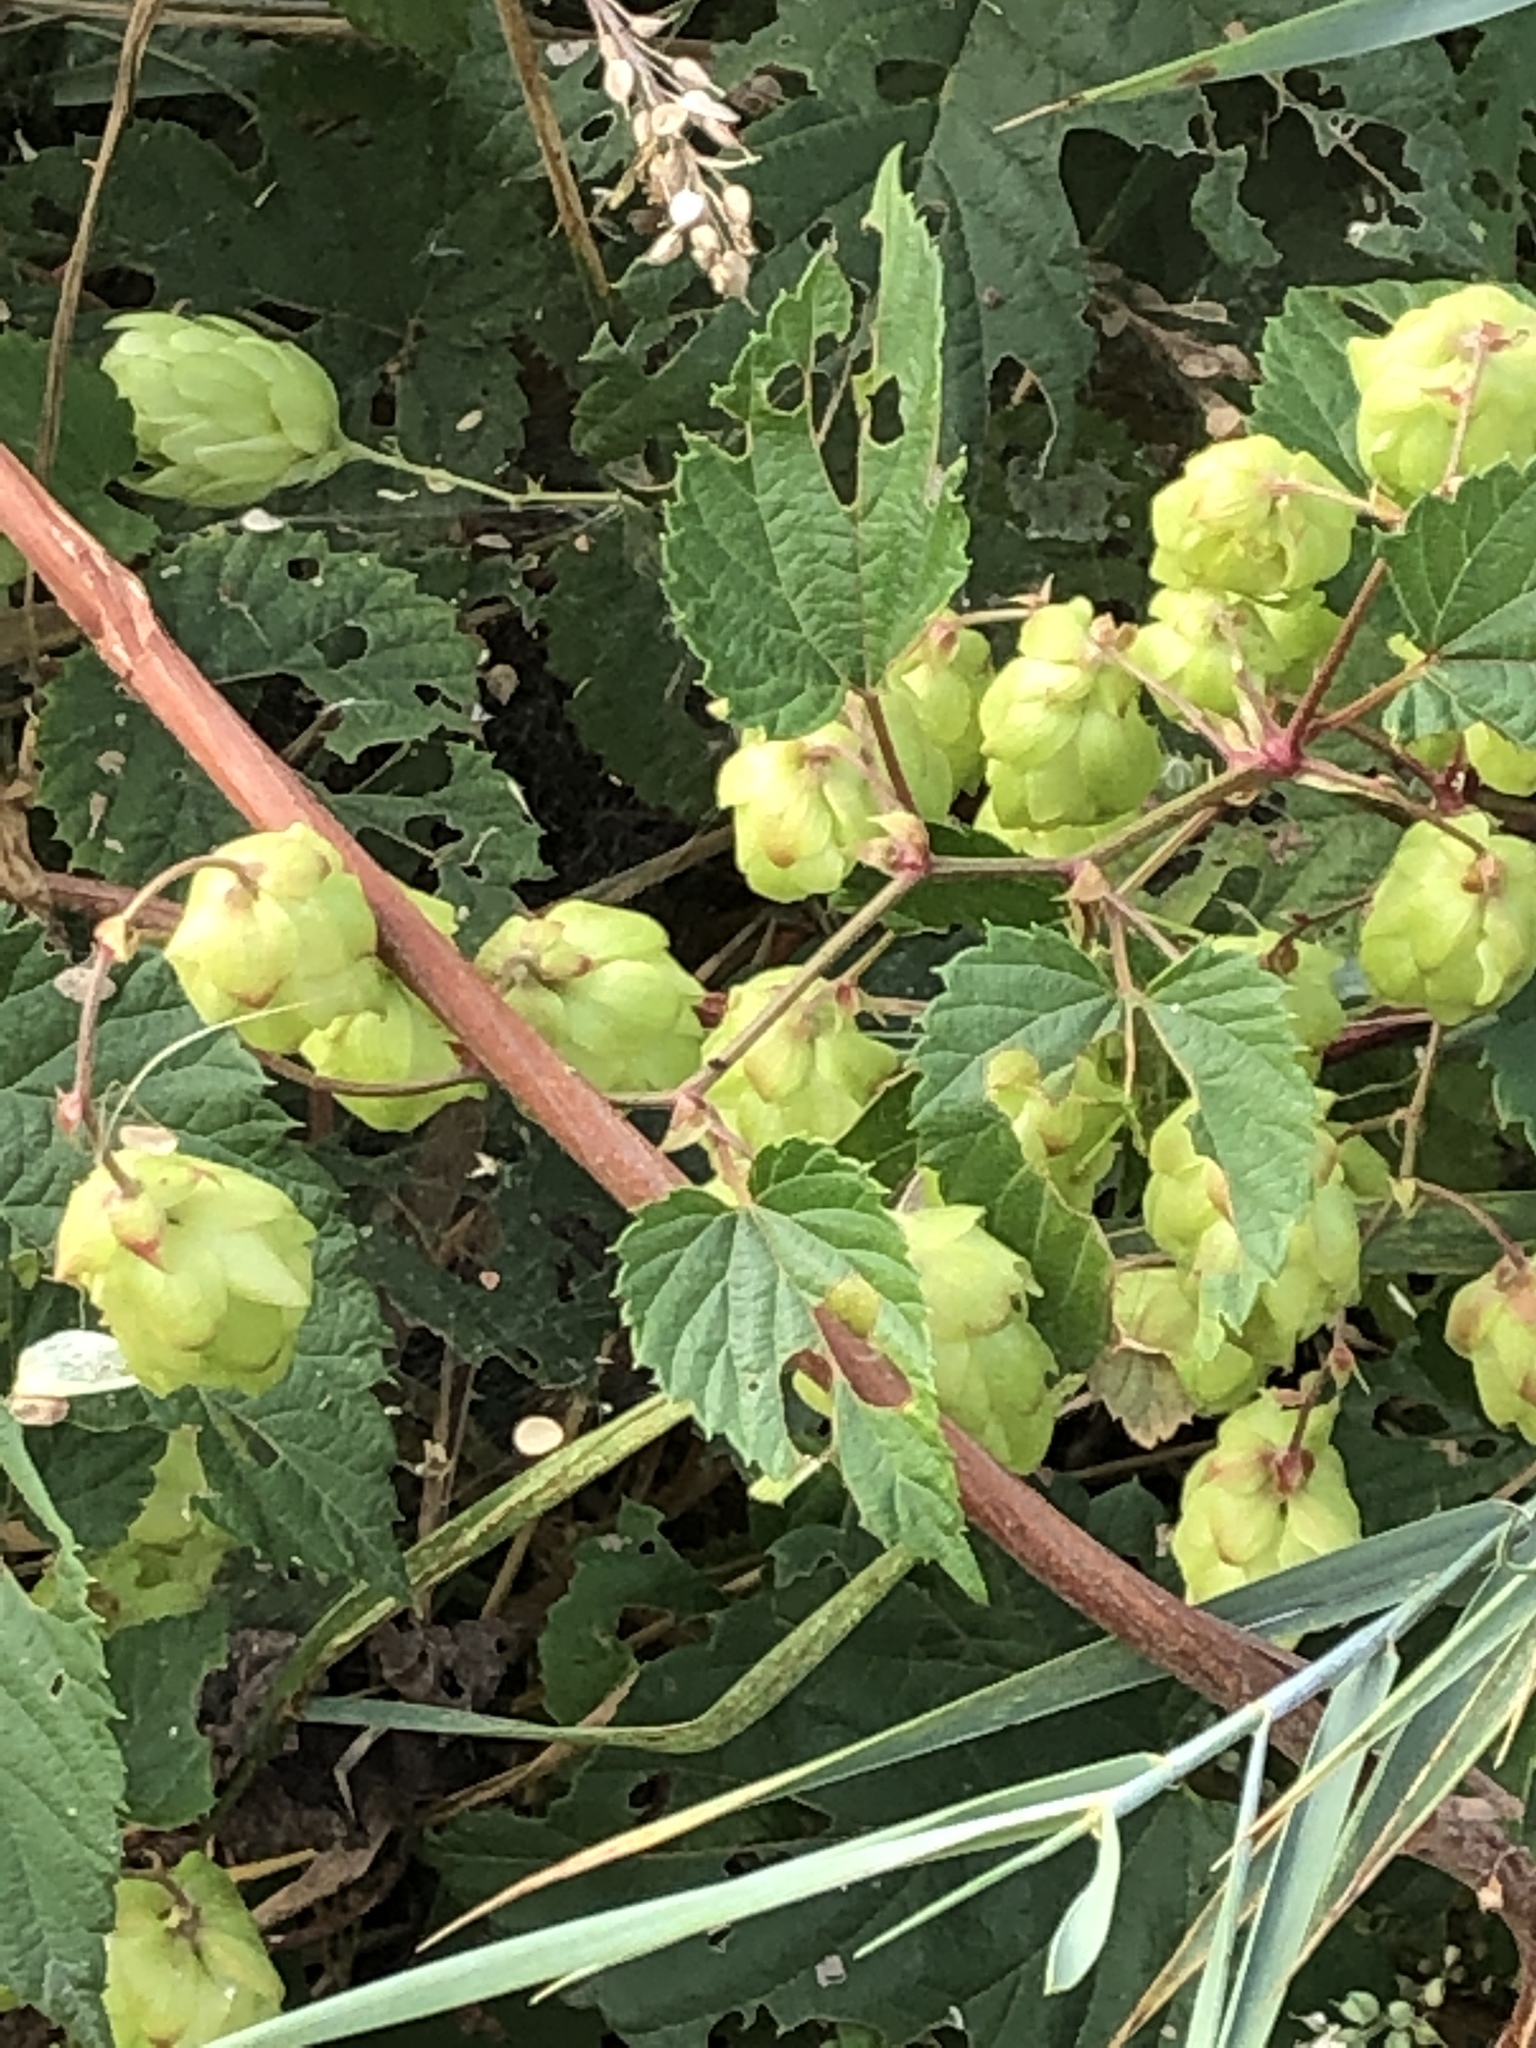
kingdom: Plantae
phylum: Tracheophyta
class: Magnoliopsida
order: Rosales
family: Cannabaceae
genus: Humulus
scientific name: Humulus lupulus
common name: Hop
